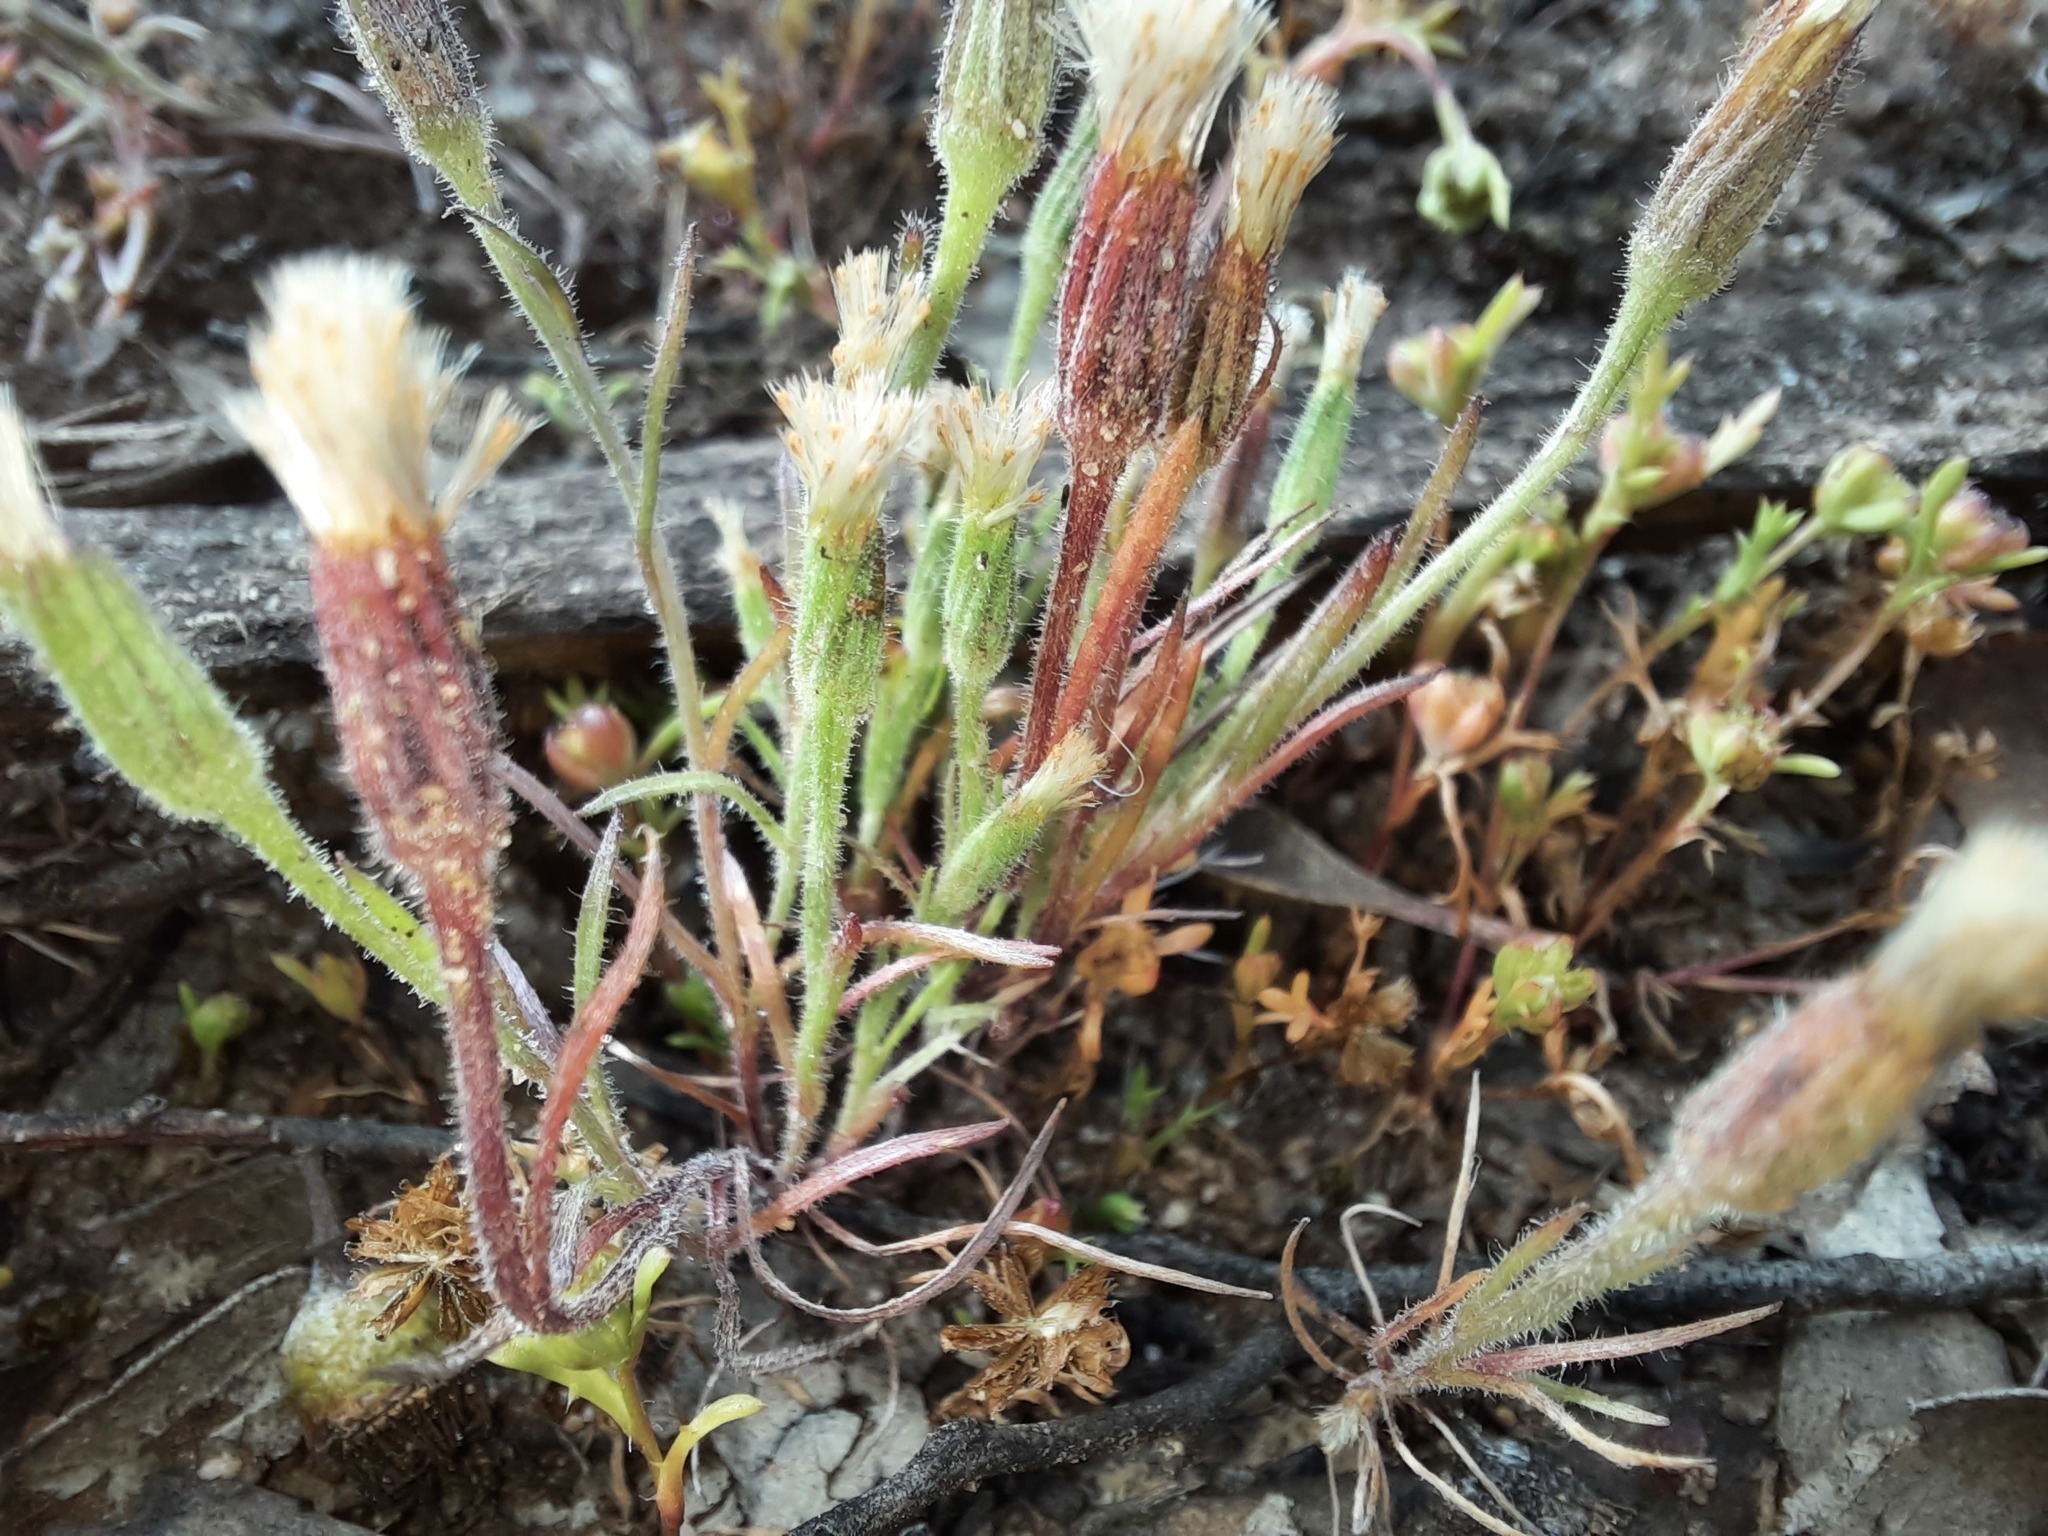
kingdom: Plantae
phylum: Tracheophyta
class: Magnoliopsida
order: Asterales
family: Asteraceae
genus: Millotia
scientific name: Millotia tenuifolia
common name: Soft millotia
